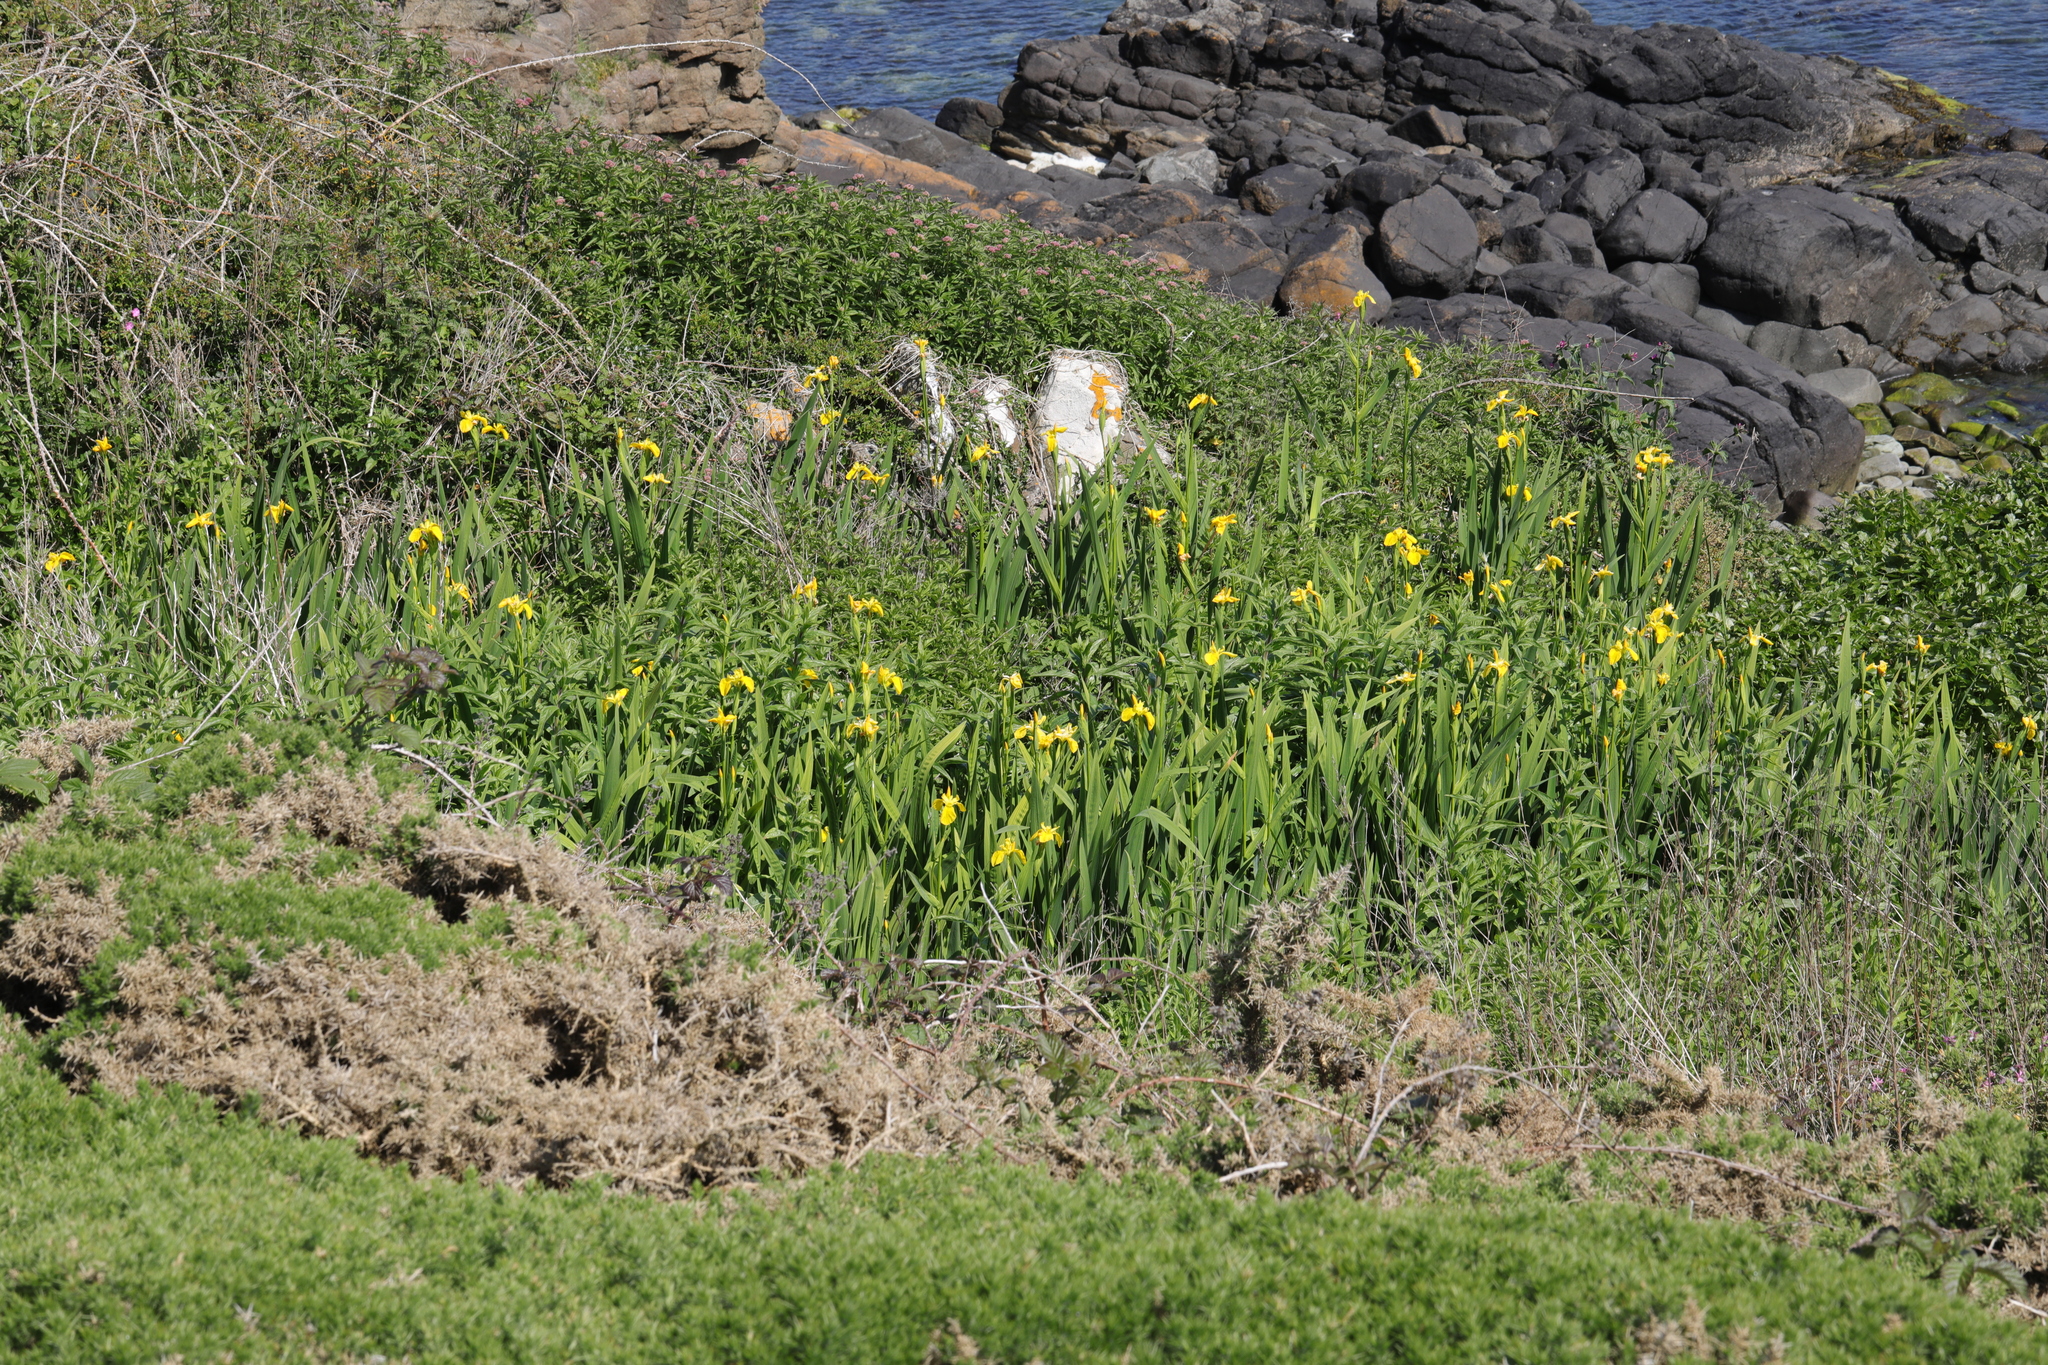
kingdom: Plantae
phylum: Tracheophyta
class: Liliopsida
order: Asparagales
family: Iridaceae
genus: Iris
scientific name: Iris pseudacorus
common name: Yellow flag
